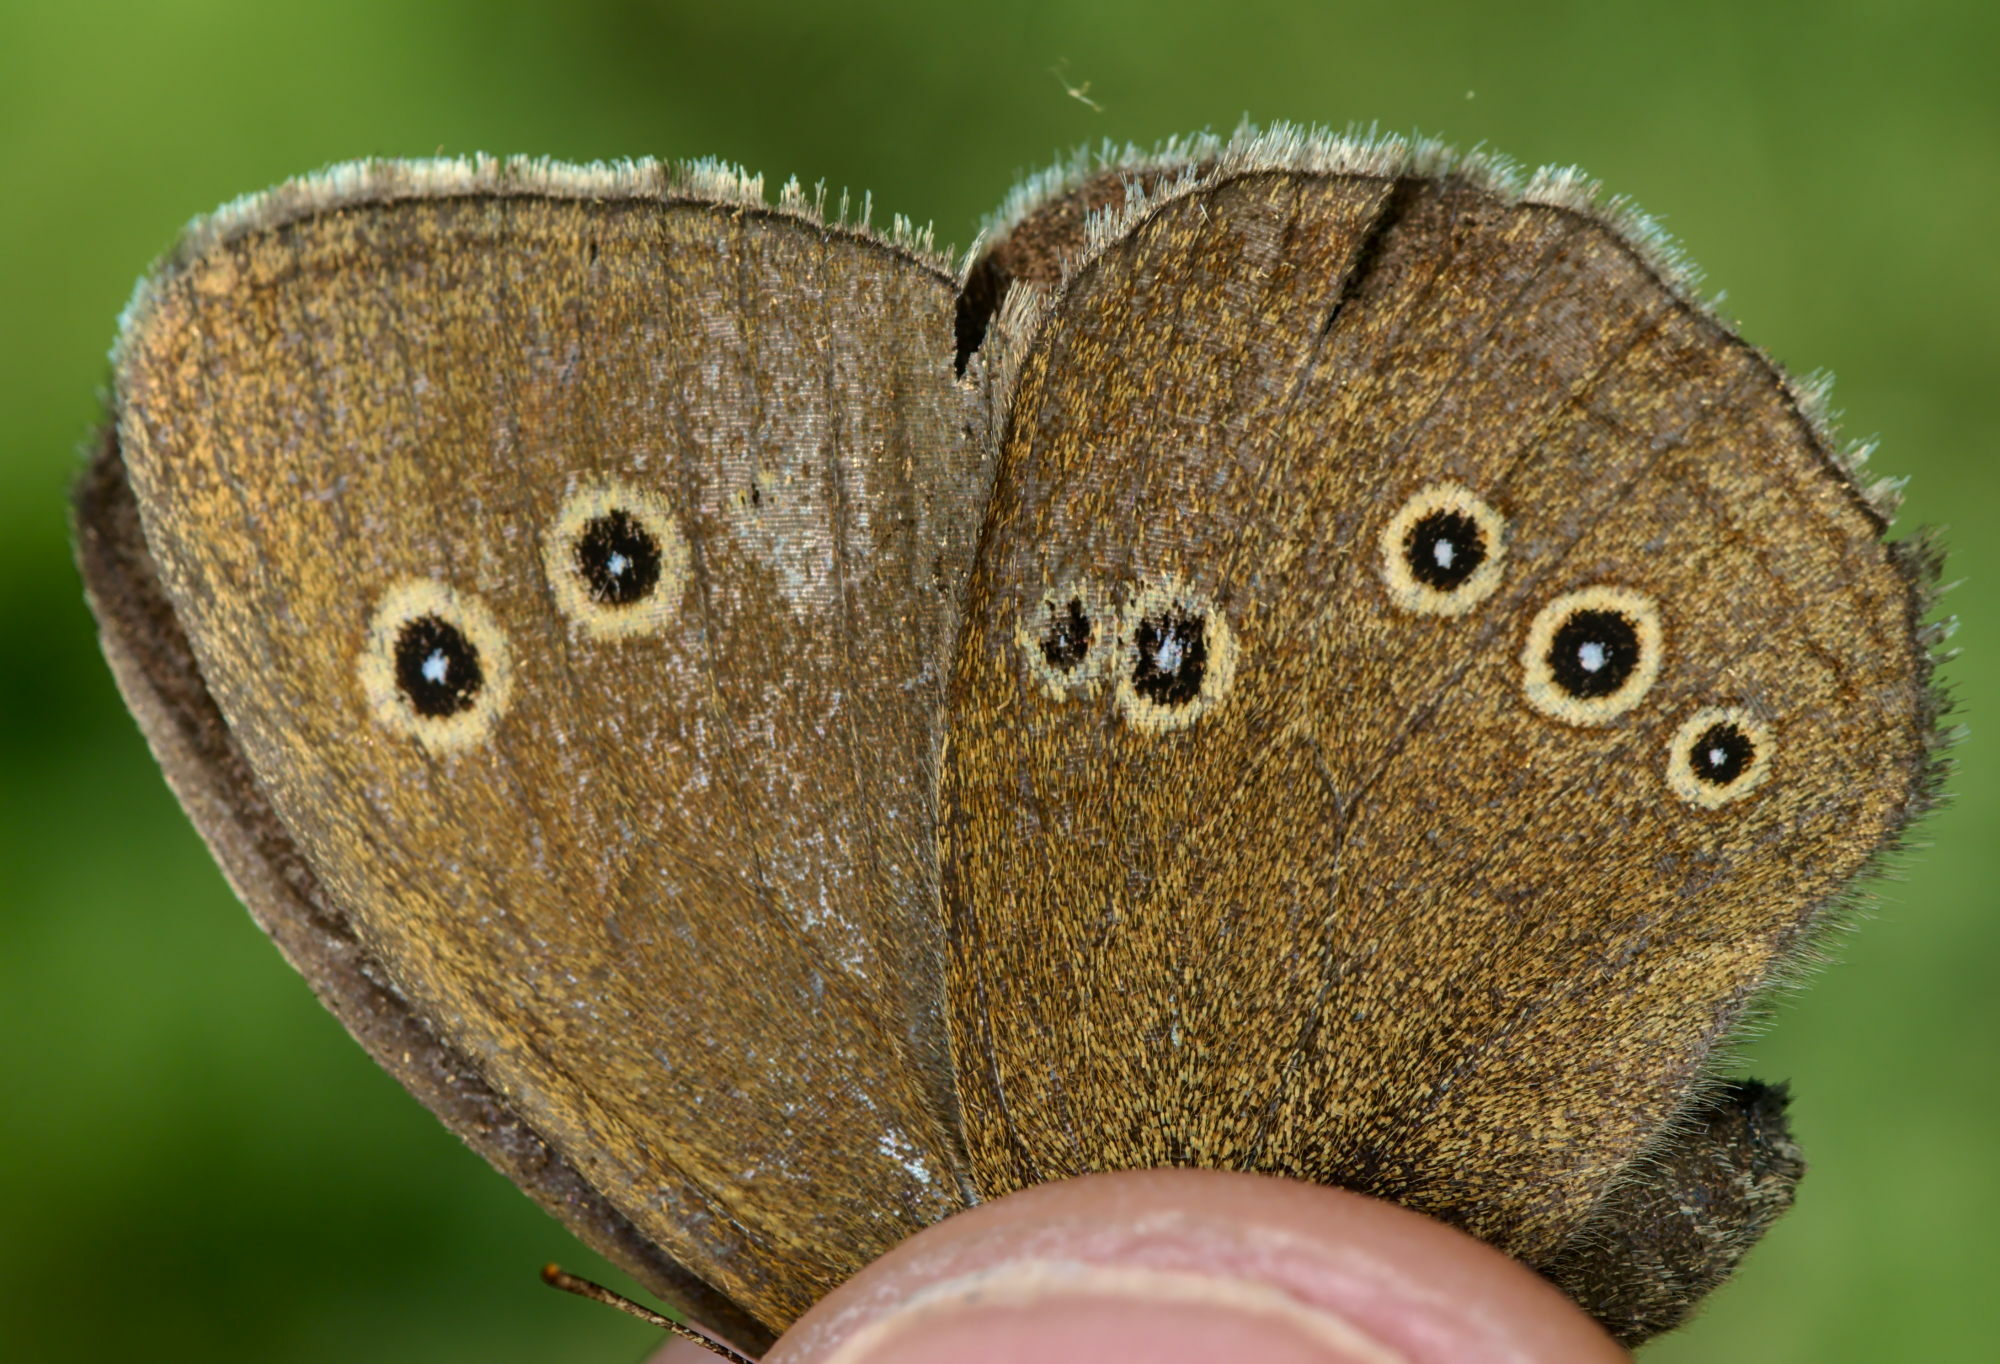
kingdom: Animalia
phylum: Arthropoda
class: Insecta
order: Lepidoptera
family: Nymphalidae
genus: Aphantopus
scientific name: Aphantopus hyperantus
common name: Ringlet
